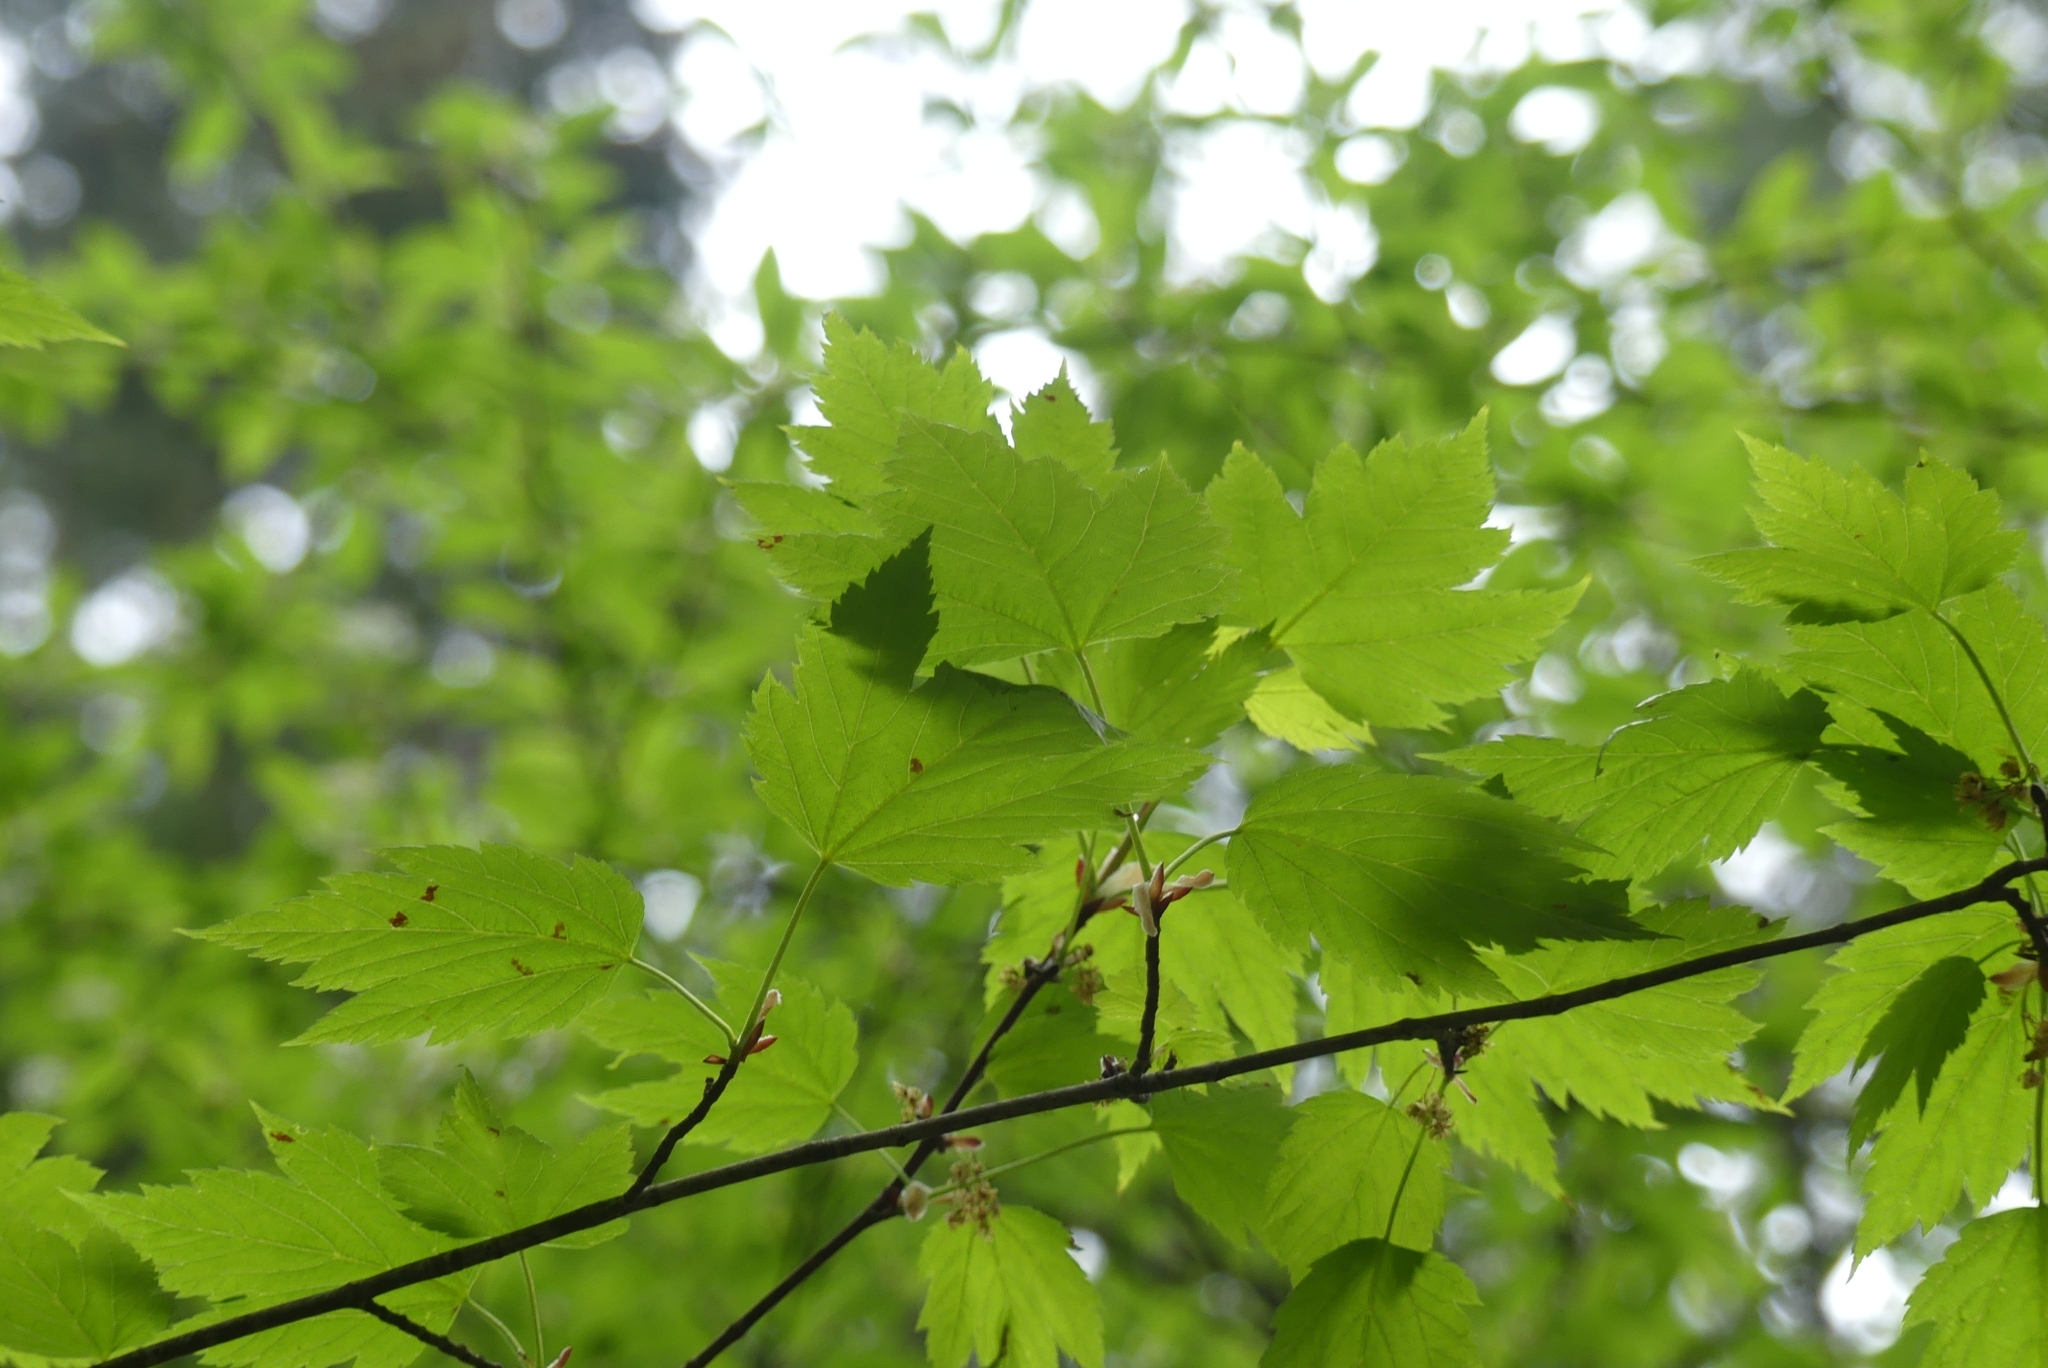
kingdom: Plantae
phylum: Tracheophyta
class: Magnoliopsida
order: Sapindales
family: Sapindaceae
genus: Acer
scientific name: Acer glabrum
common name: Rocky mountain maple
